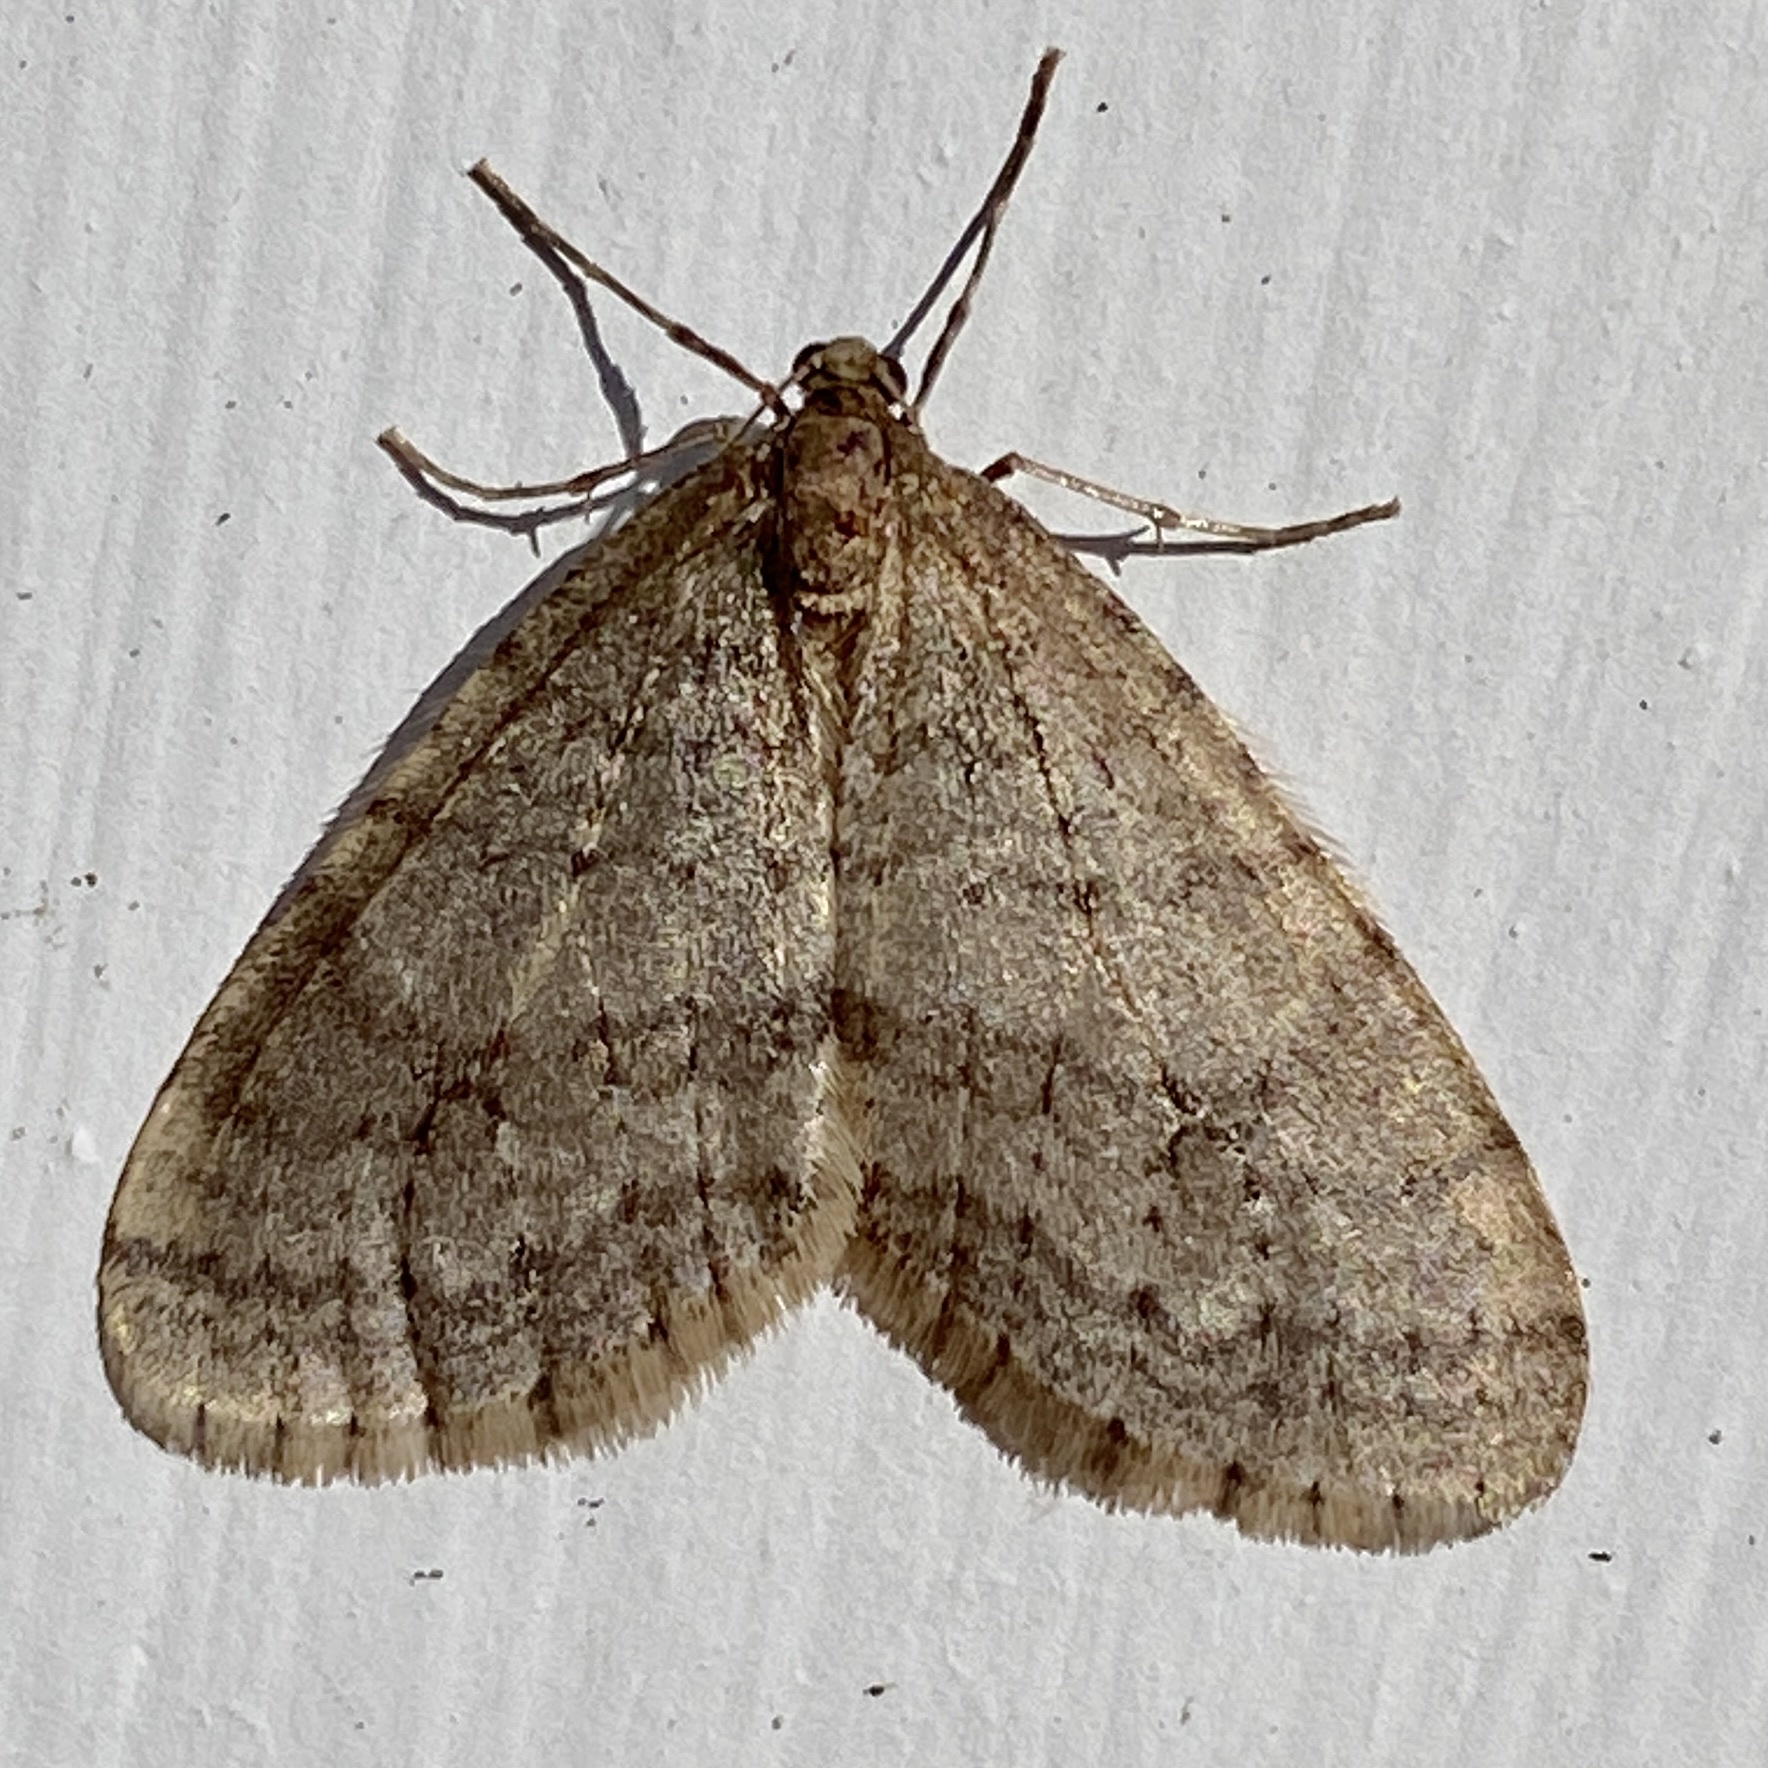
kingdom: Animalia
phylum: Arthropoda
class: Insecta
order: Lepidoptera
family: Geometridae
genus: Operophtera
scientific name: Operophtera bruceata
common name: Bruce spanworm
